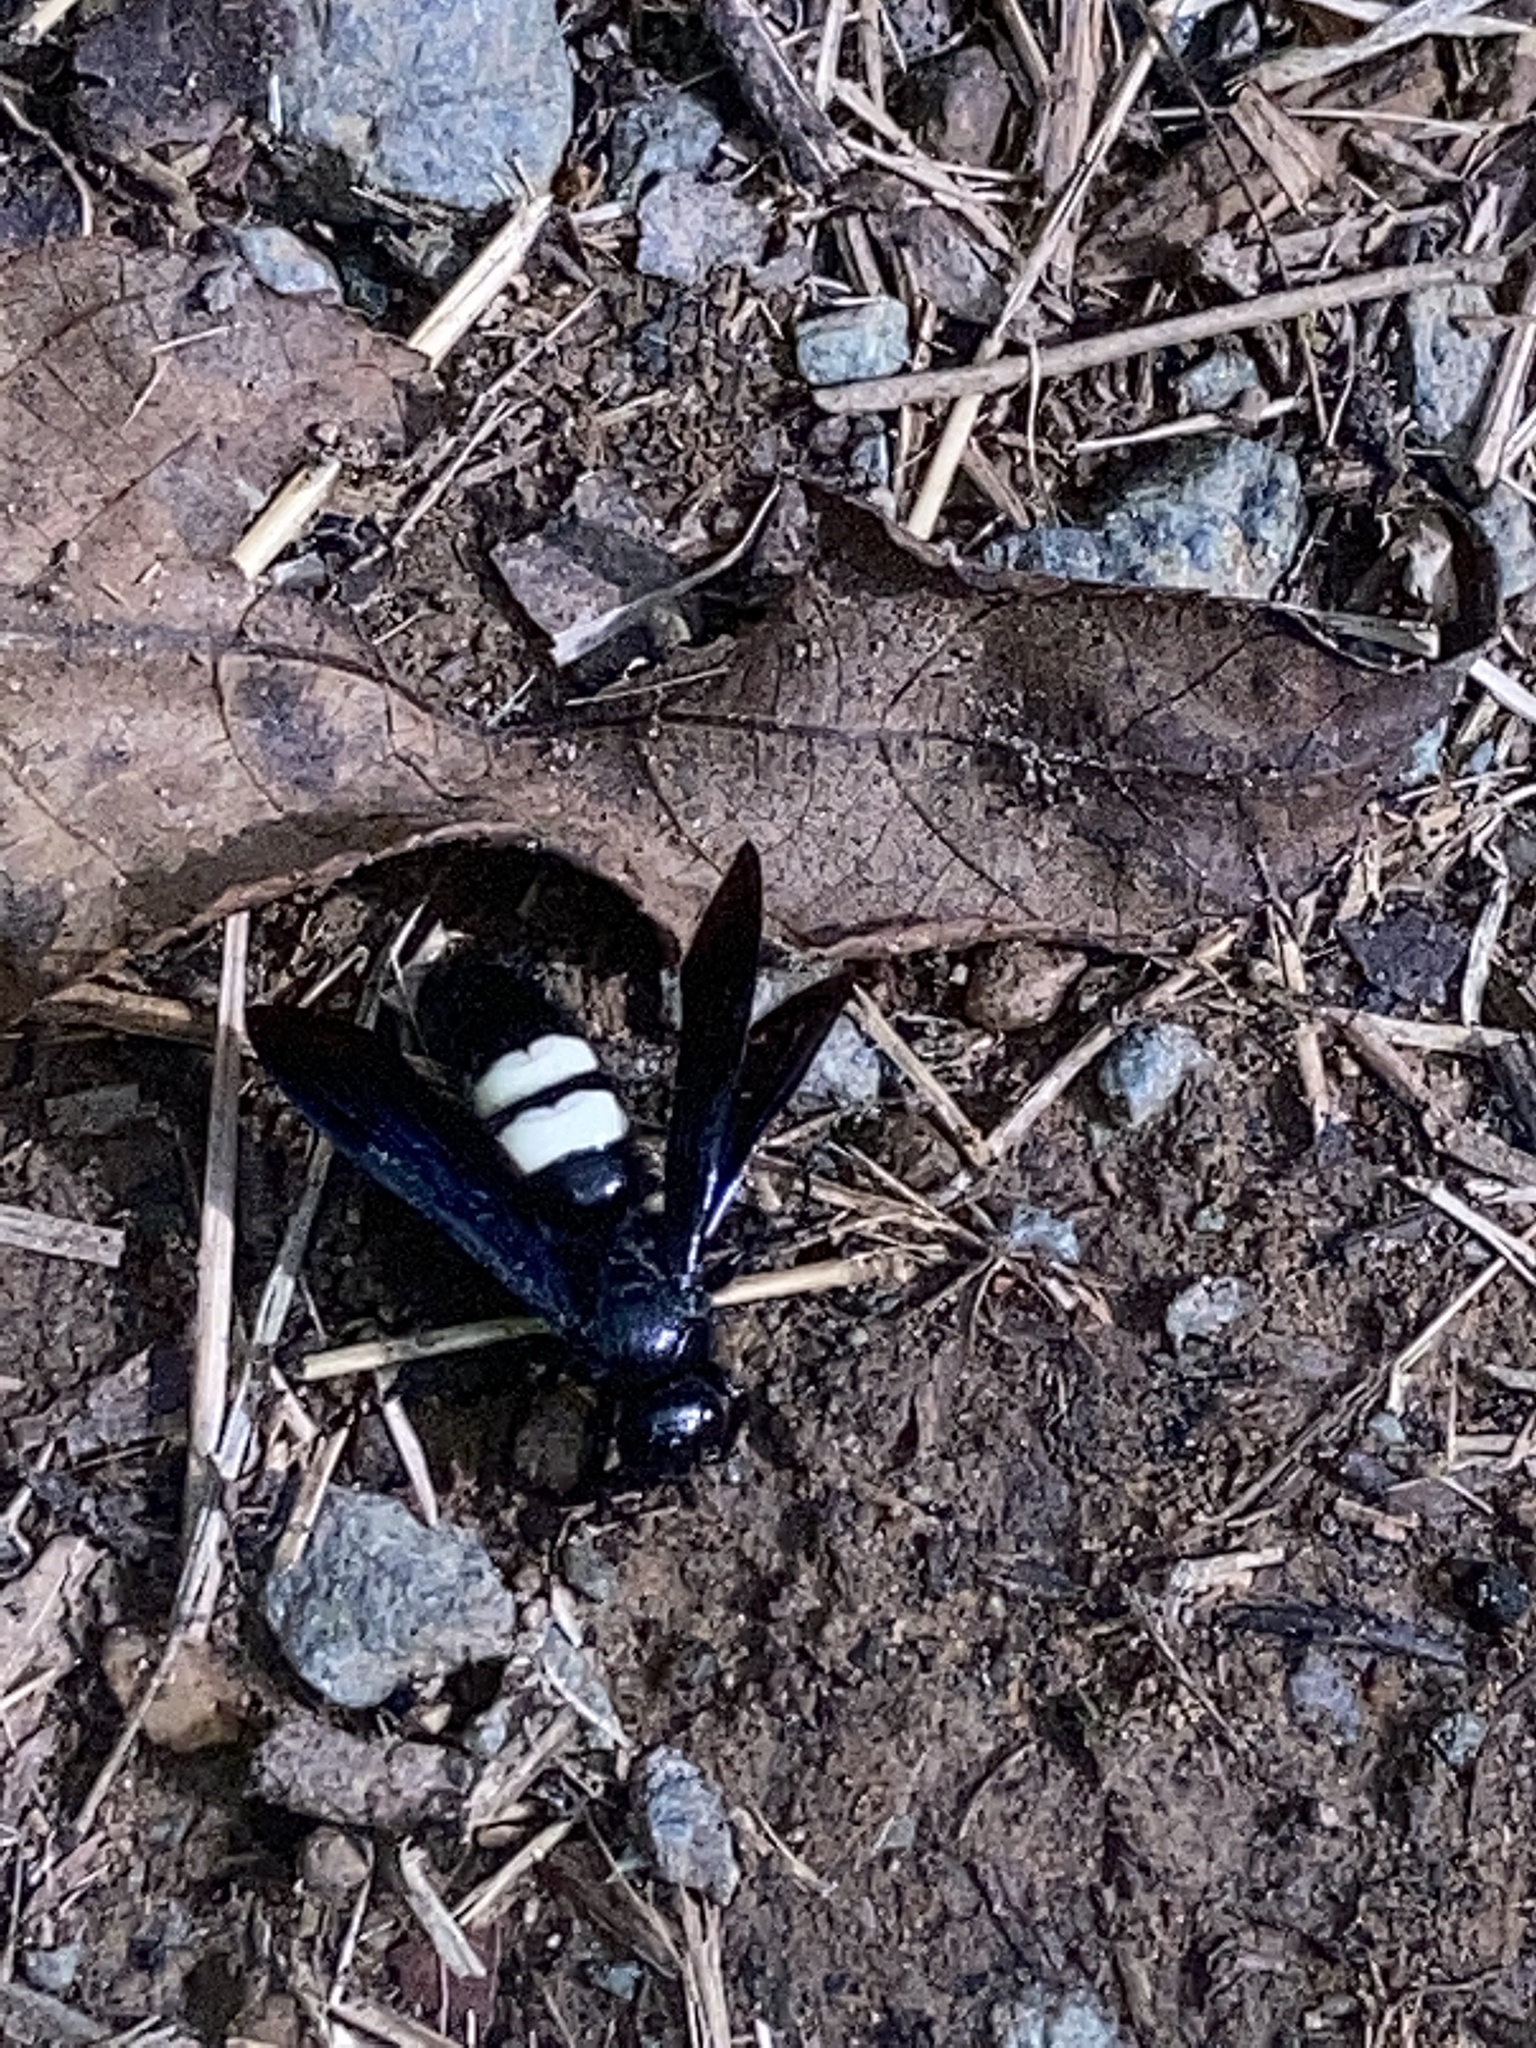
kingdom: Animalia
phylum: Arthropoda
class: Insecta
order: Hymenoptera
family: Scoliidae
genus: Scolia
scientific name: Scolia bicincta
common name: Double-banded scoliid wasp
